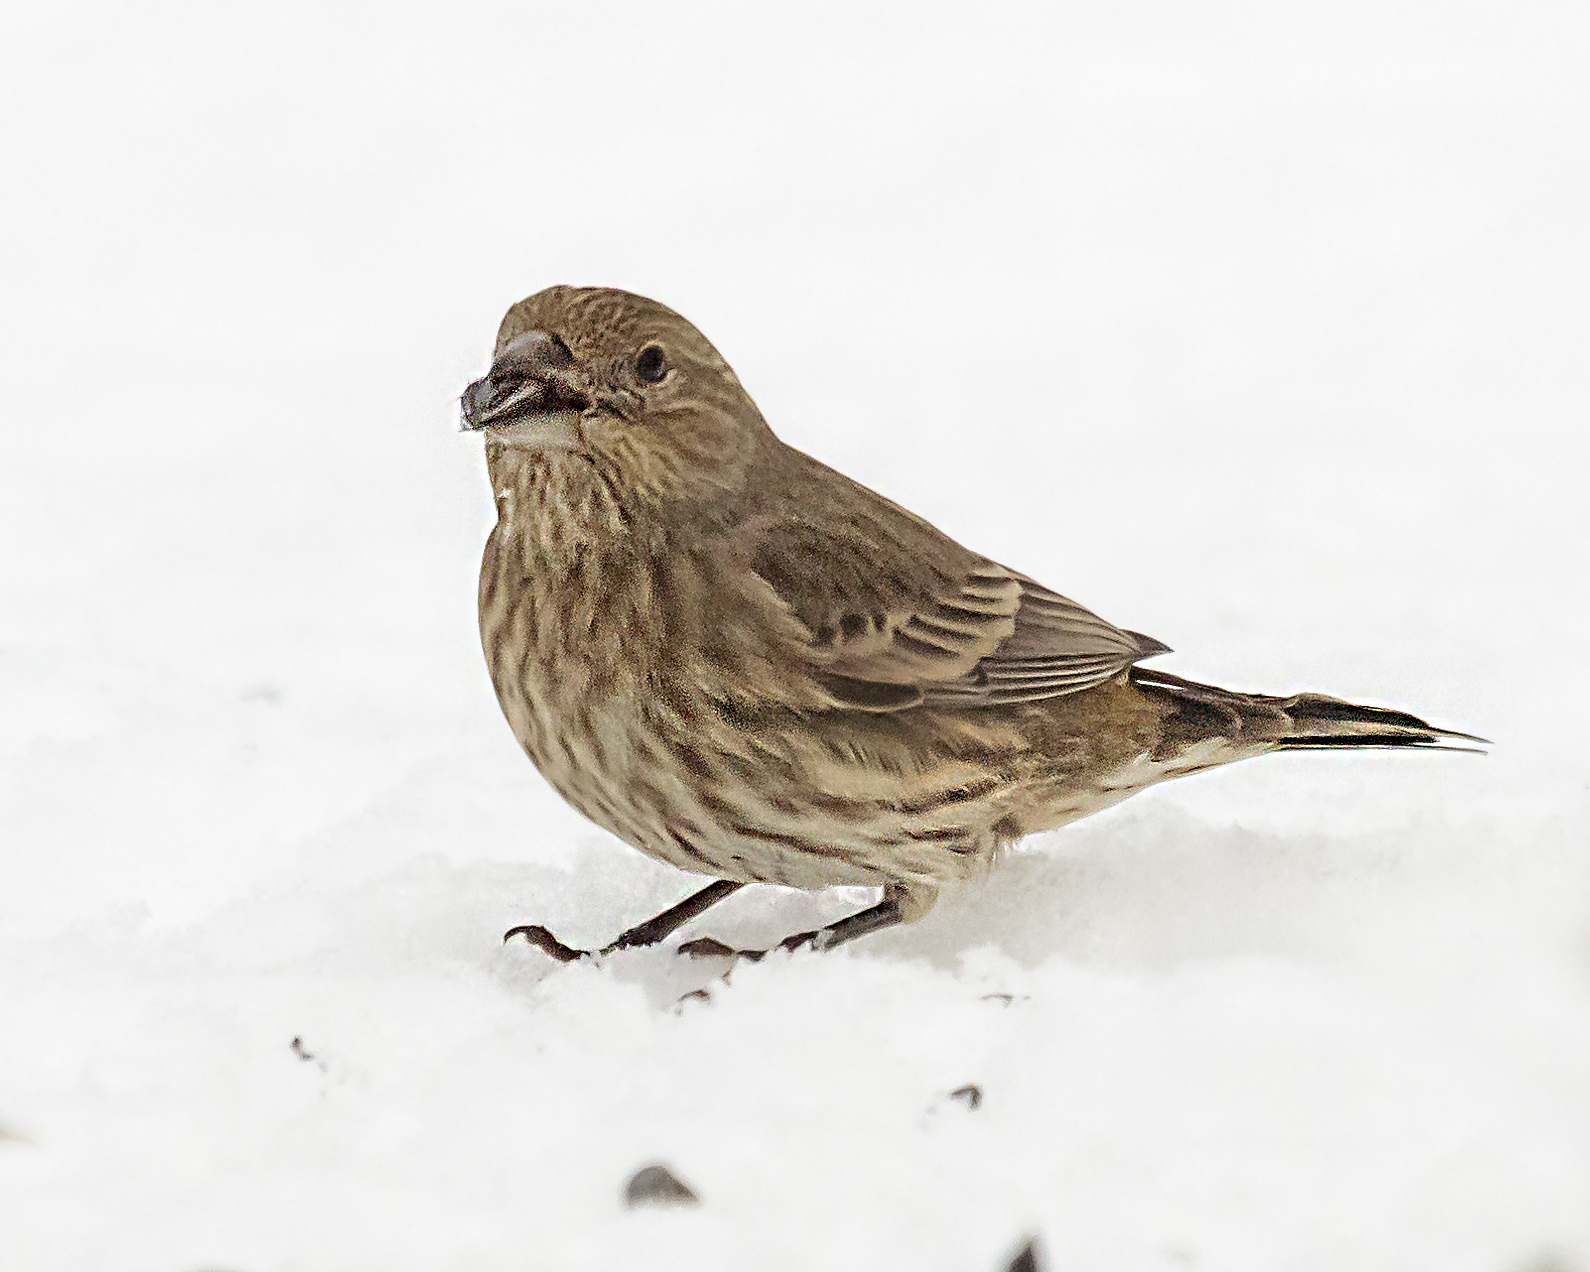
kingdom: Animalia
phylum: Chordata
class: Aves
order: Passeriformes
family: Fringillidae
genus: Haemorhous
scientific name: Haemorhous mexicanus
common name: House finch
